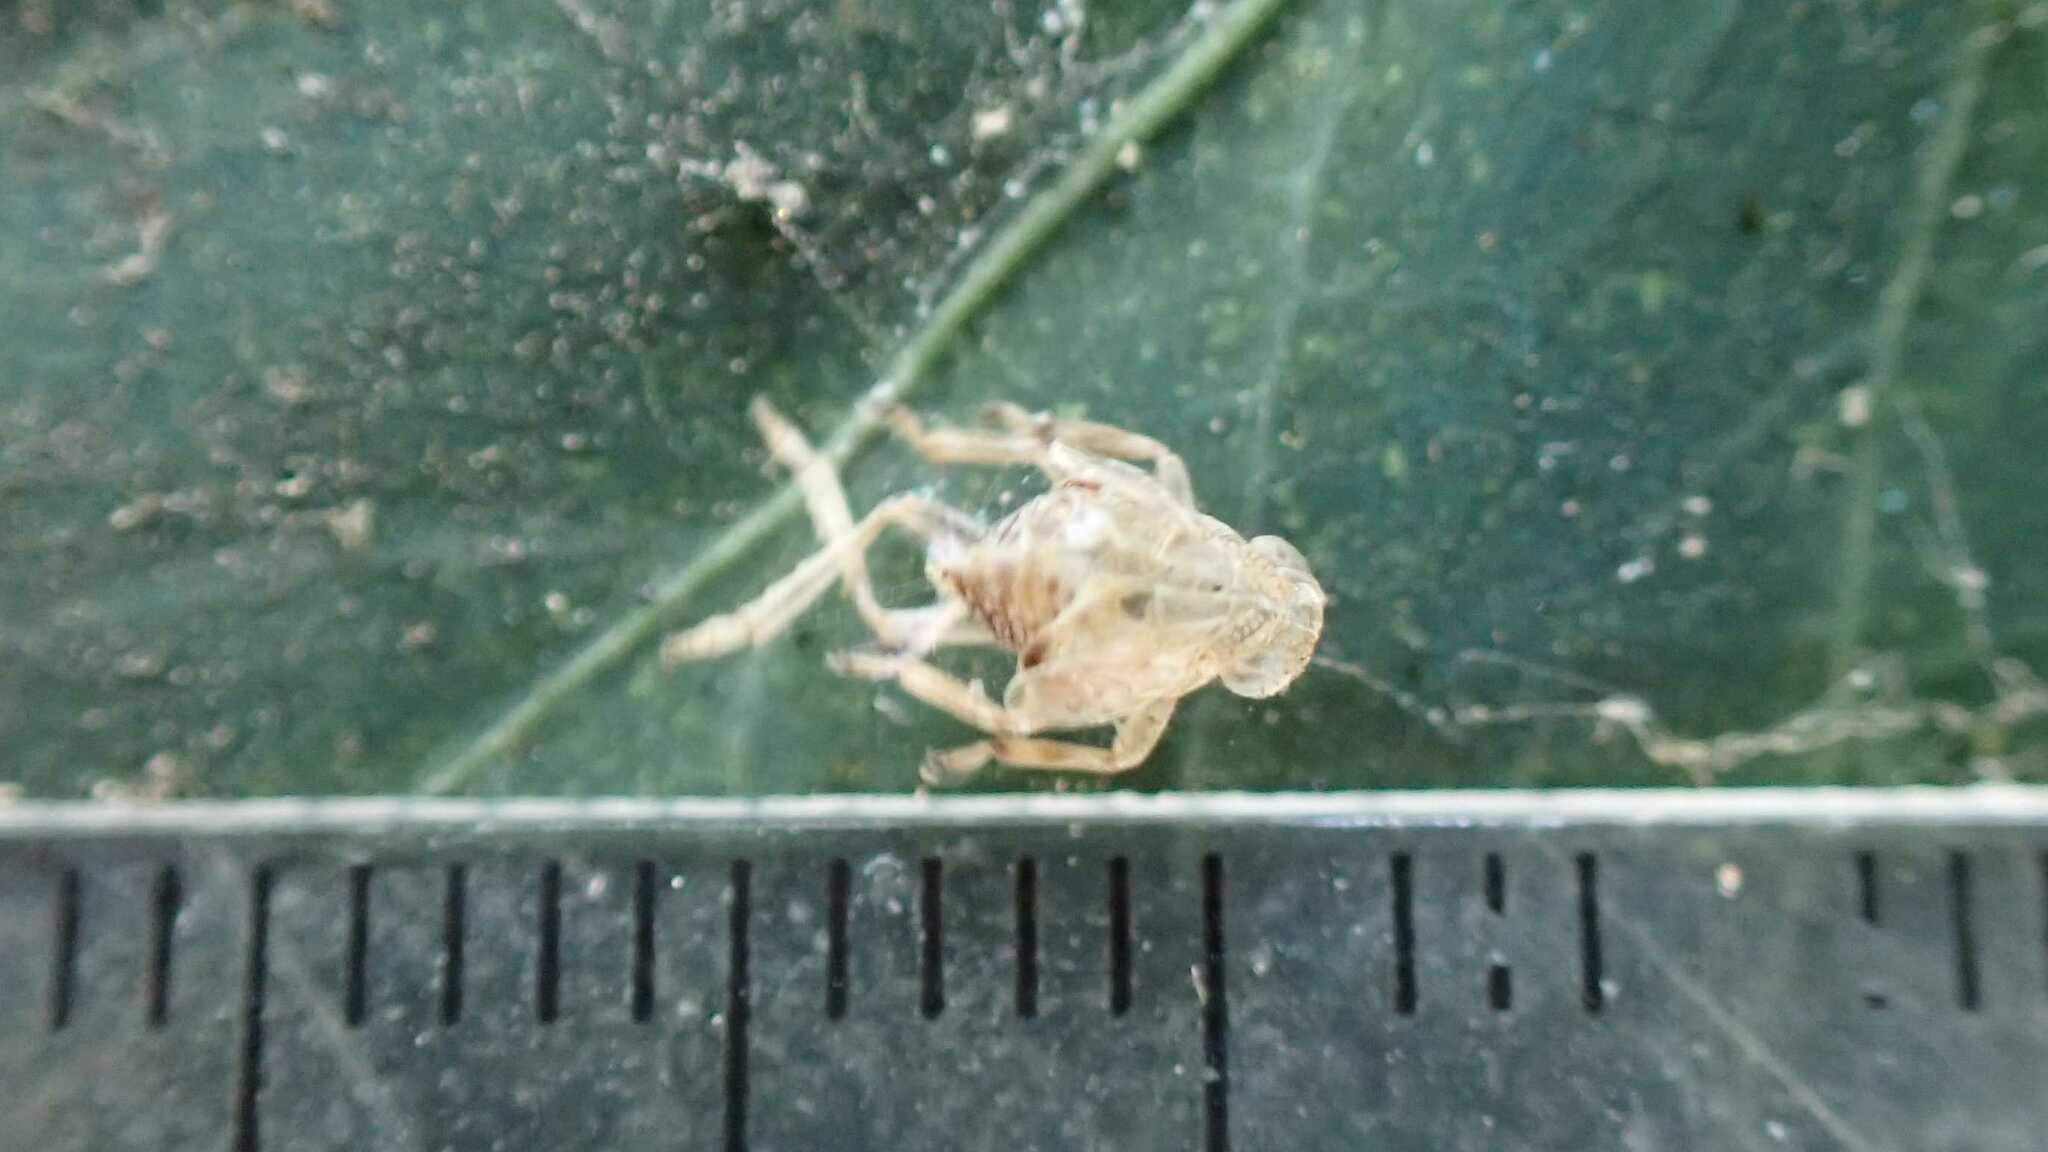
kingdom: Animalia
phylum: Arthropoda
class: Insecta
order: Hemiptera
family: Issidae
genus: Issus
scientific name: Issus coleoptratus
